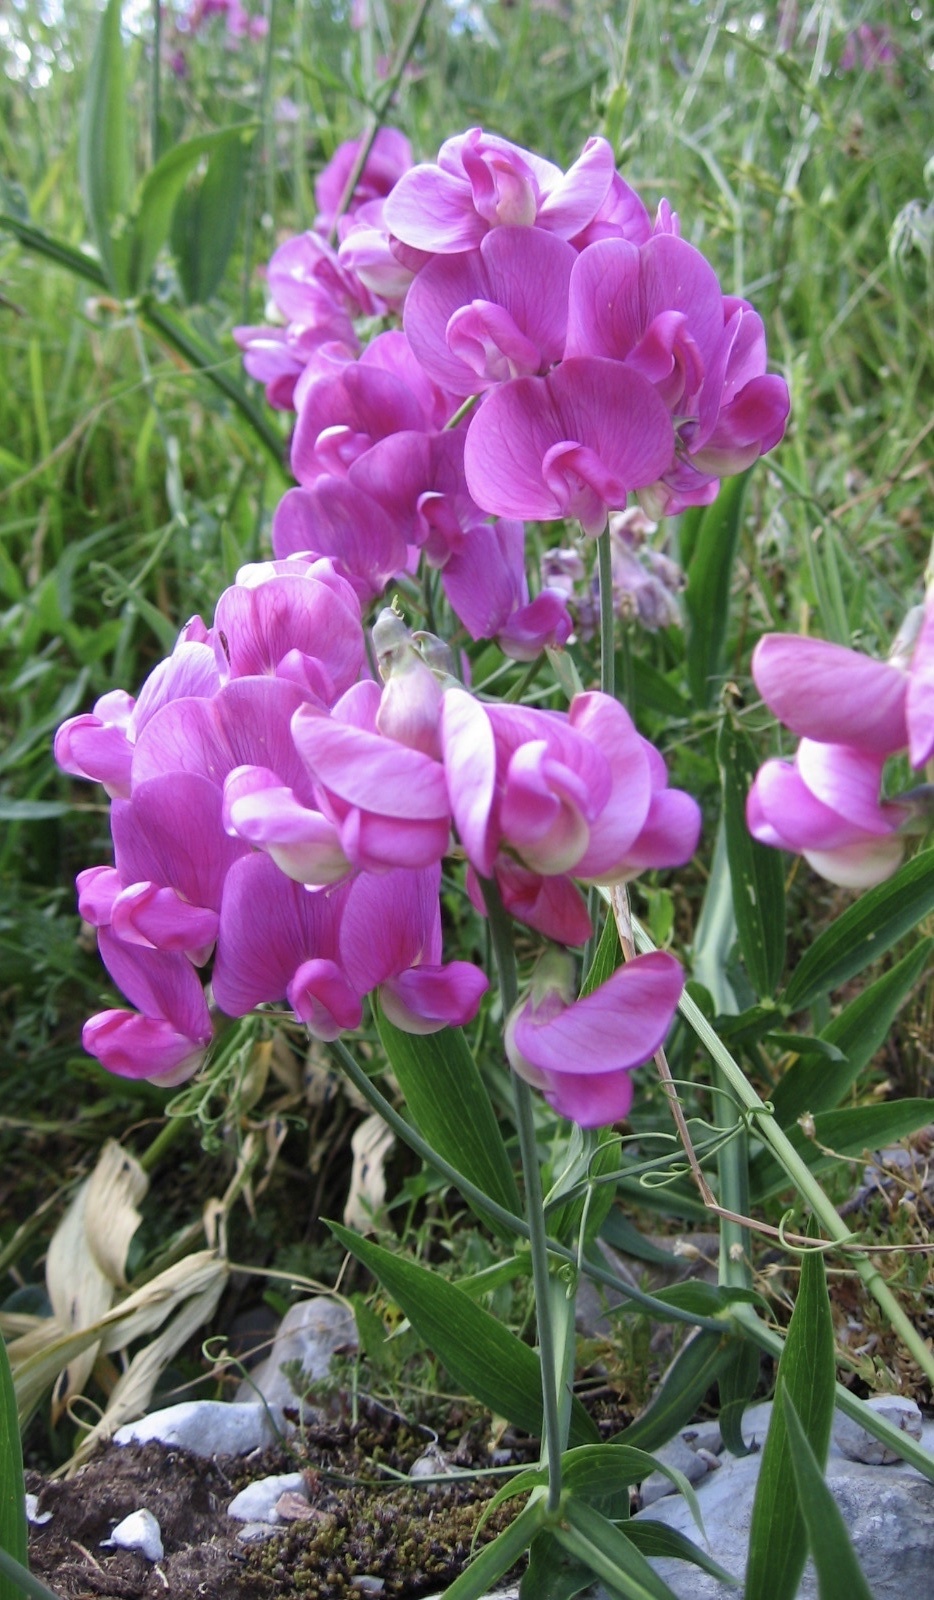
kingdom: Plantae
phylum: Tracheophyta
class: Magnoliopsida
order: Fabales
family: Fabaceae
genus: Lathyrus
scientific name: Lathyrus latifolius
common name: Perennial pea
